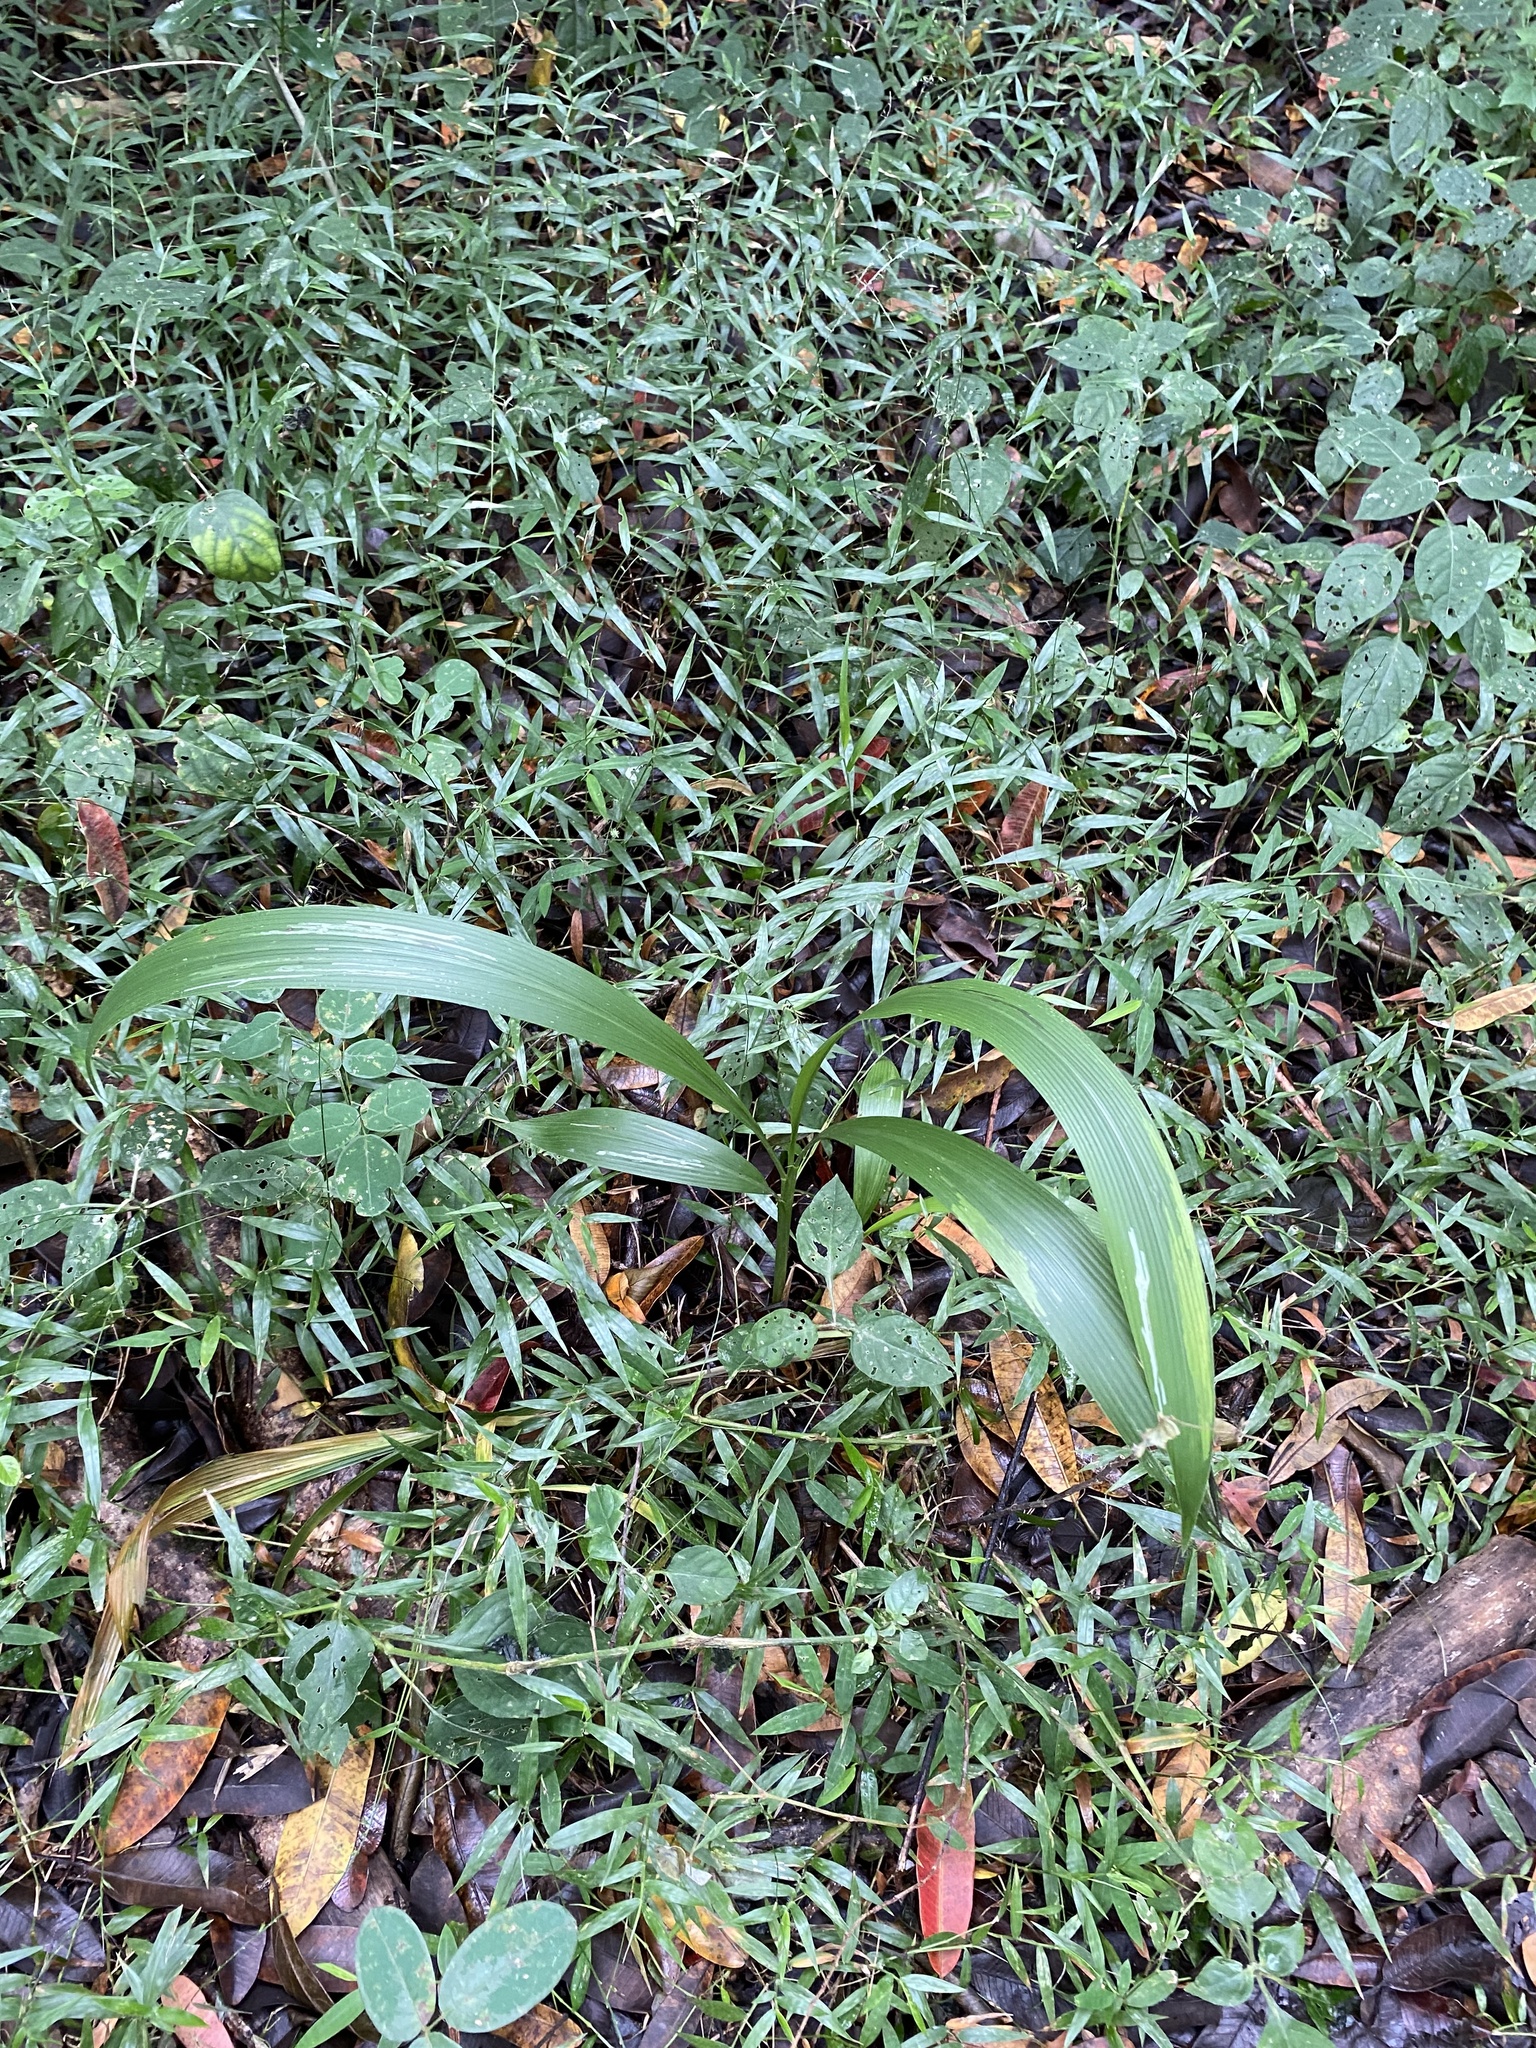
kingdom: Plantae
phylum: Tracheophyta
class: Liliopsida
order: Poales
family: Poaceae
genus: Setaria
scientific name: Setaria megaphylla
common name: Bigleaf bristlegrass
